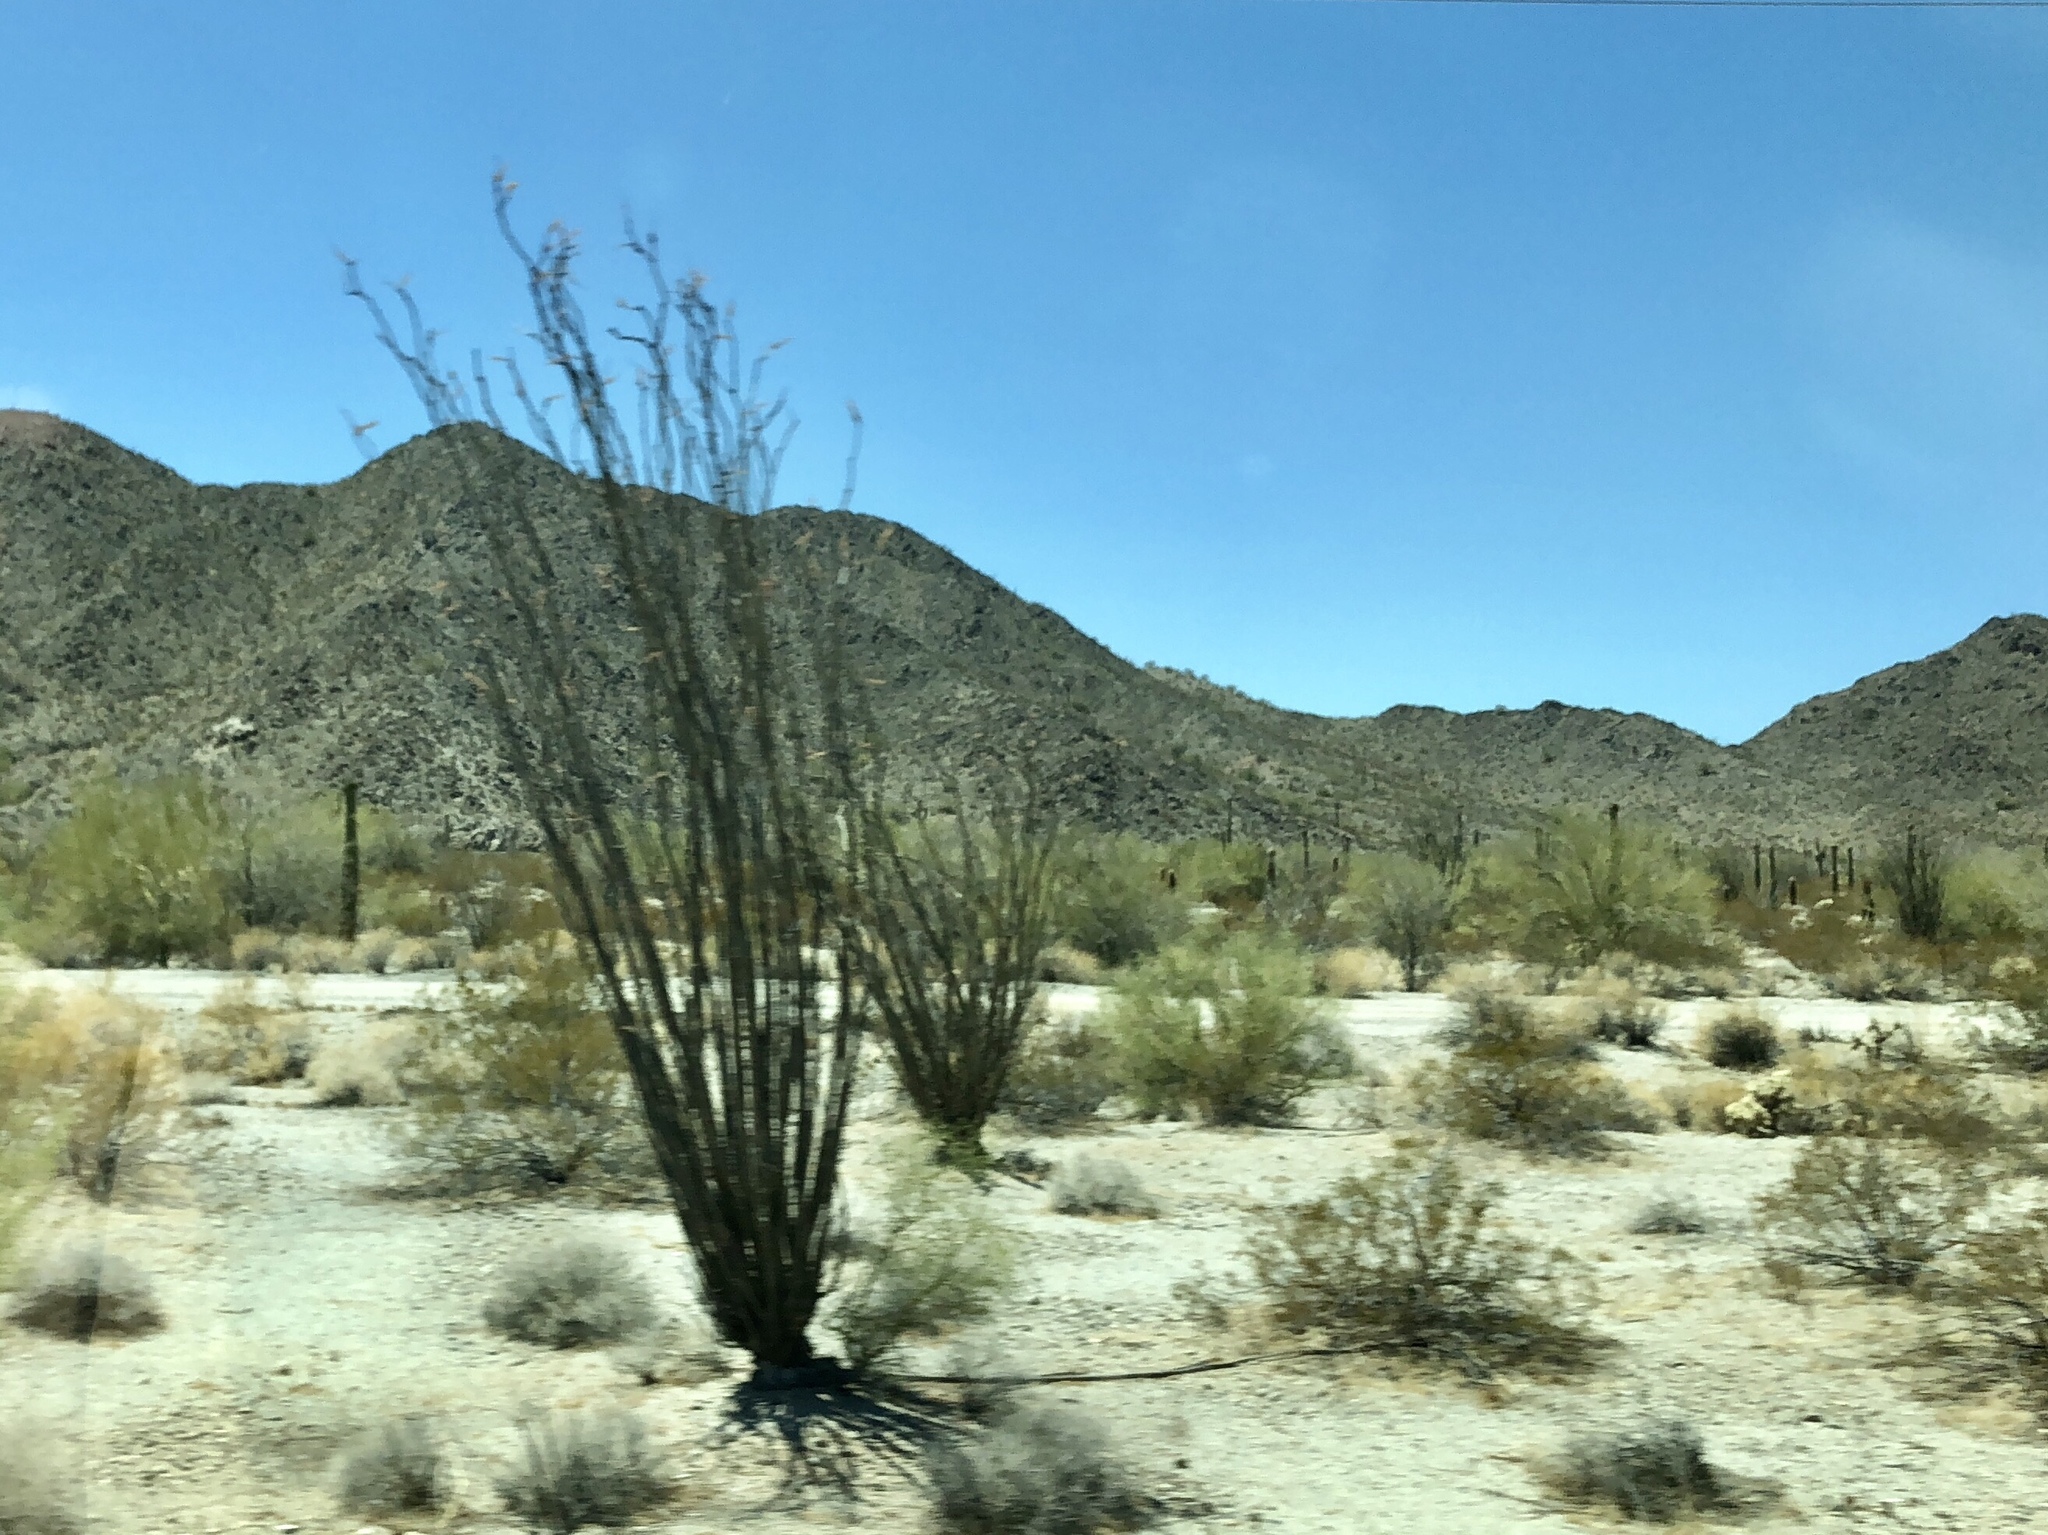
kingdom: Plantae
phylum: Tracheophyta
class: Magnoliopsida
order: Ericales
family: Fouquieriaceae
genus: Fouquieria
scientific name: Fouquieria splendens
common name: Vine-cactus
